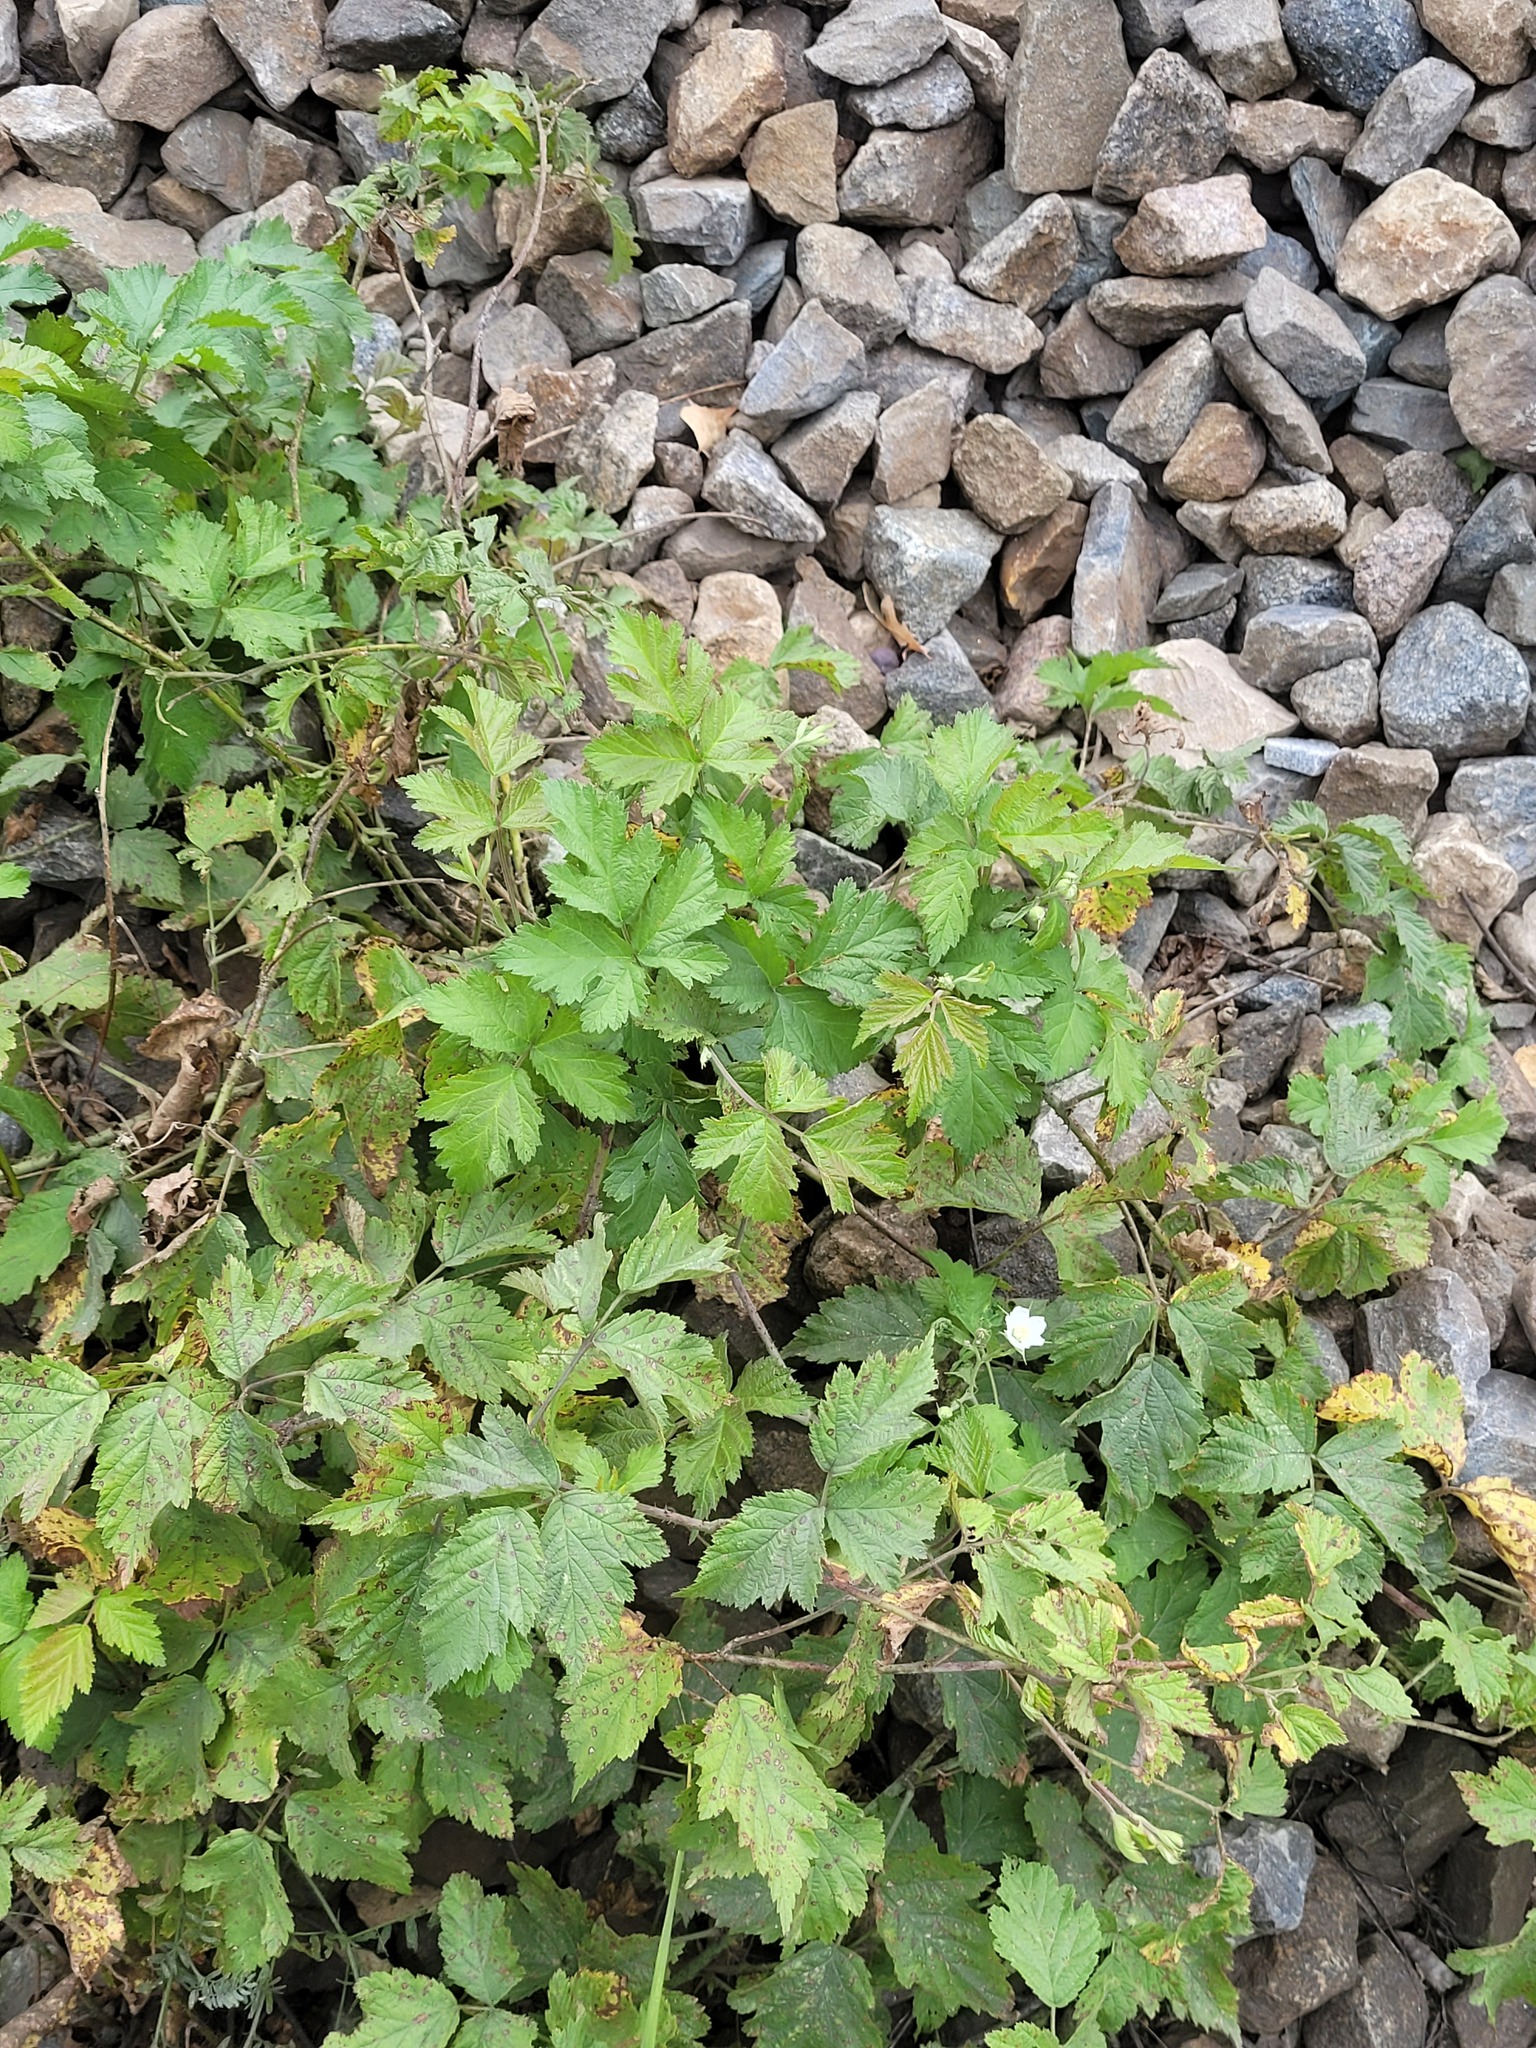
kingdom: Plantae
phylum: Tracheophyta
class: Magnoliopsida
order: Rosales
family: Rosaceae
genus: Rubus
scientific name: Rubus caesius
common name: Dewberry
